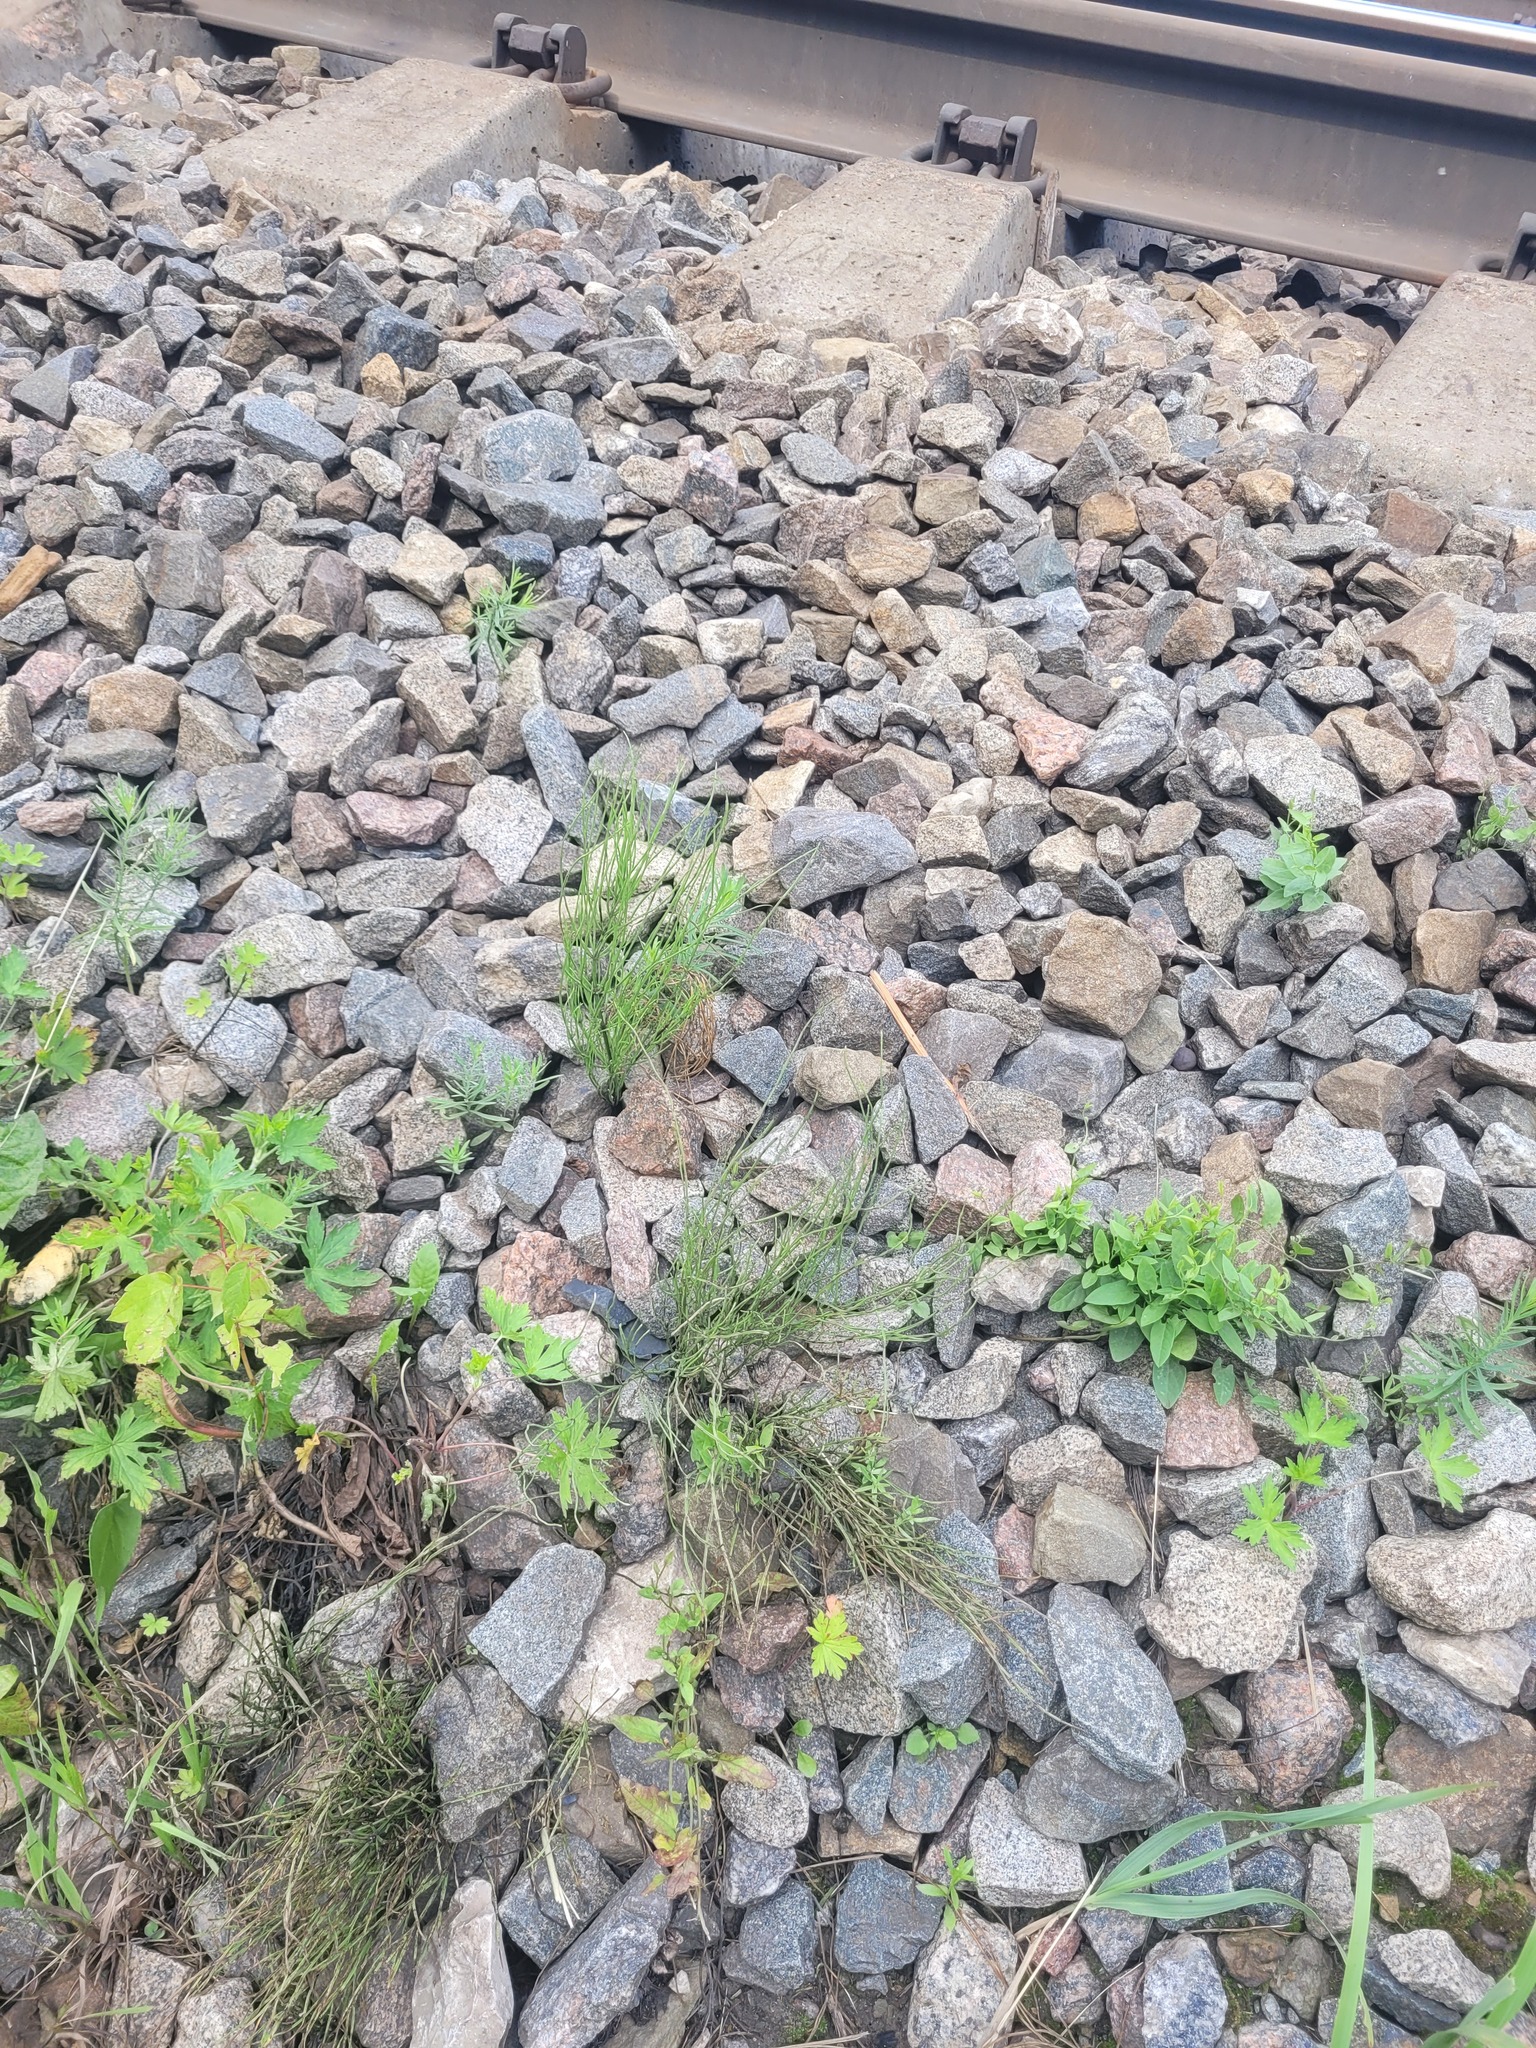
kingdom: Plantae
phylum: Tracheophyta
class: Polypodiopsida
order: Equisetales
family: Equisetaceae
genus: Equisetum
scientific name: Equisetum arvense
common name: Field horsetail
